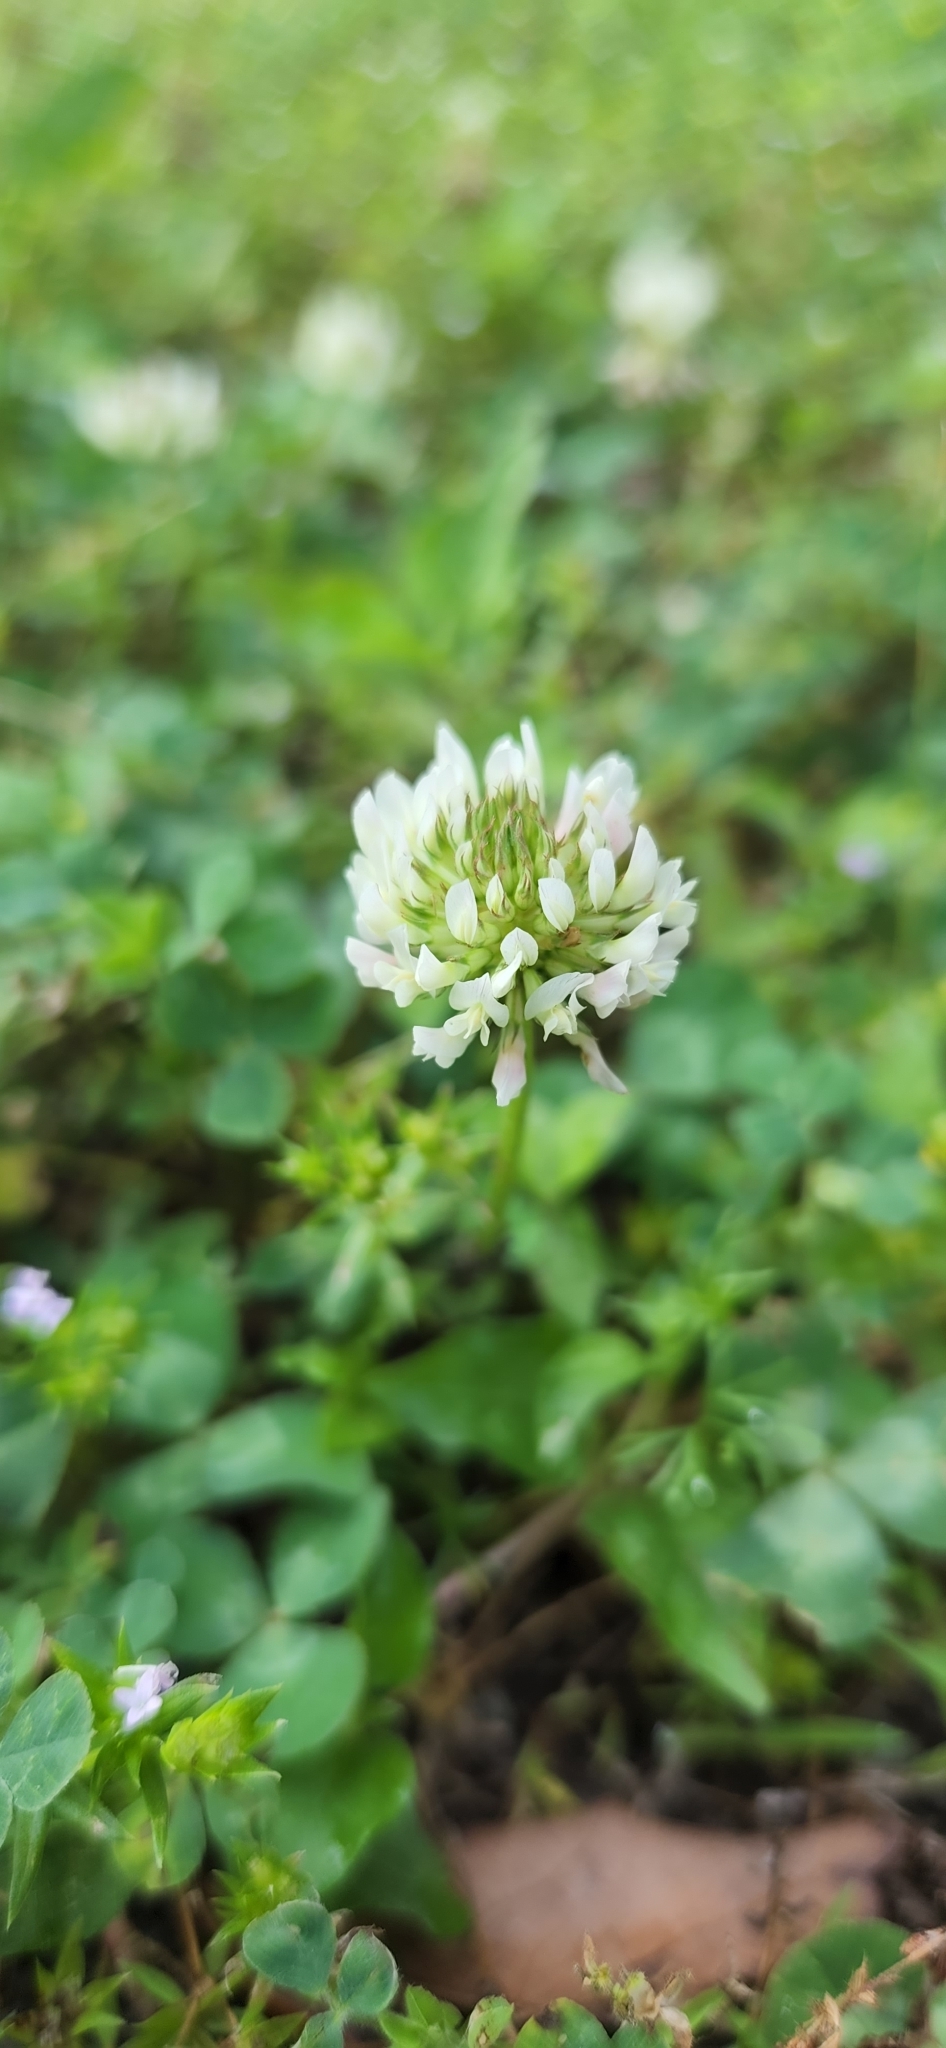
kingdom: Plantae
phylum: Tracheophyta
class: Magnoliopsida
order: Fabales
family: Fabaceae
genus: Trifolium
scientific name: Trifolium repens
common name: White clover
